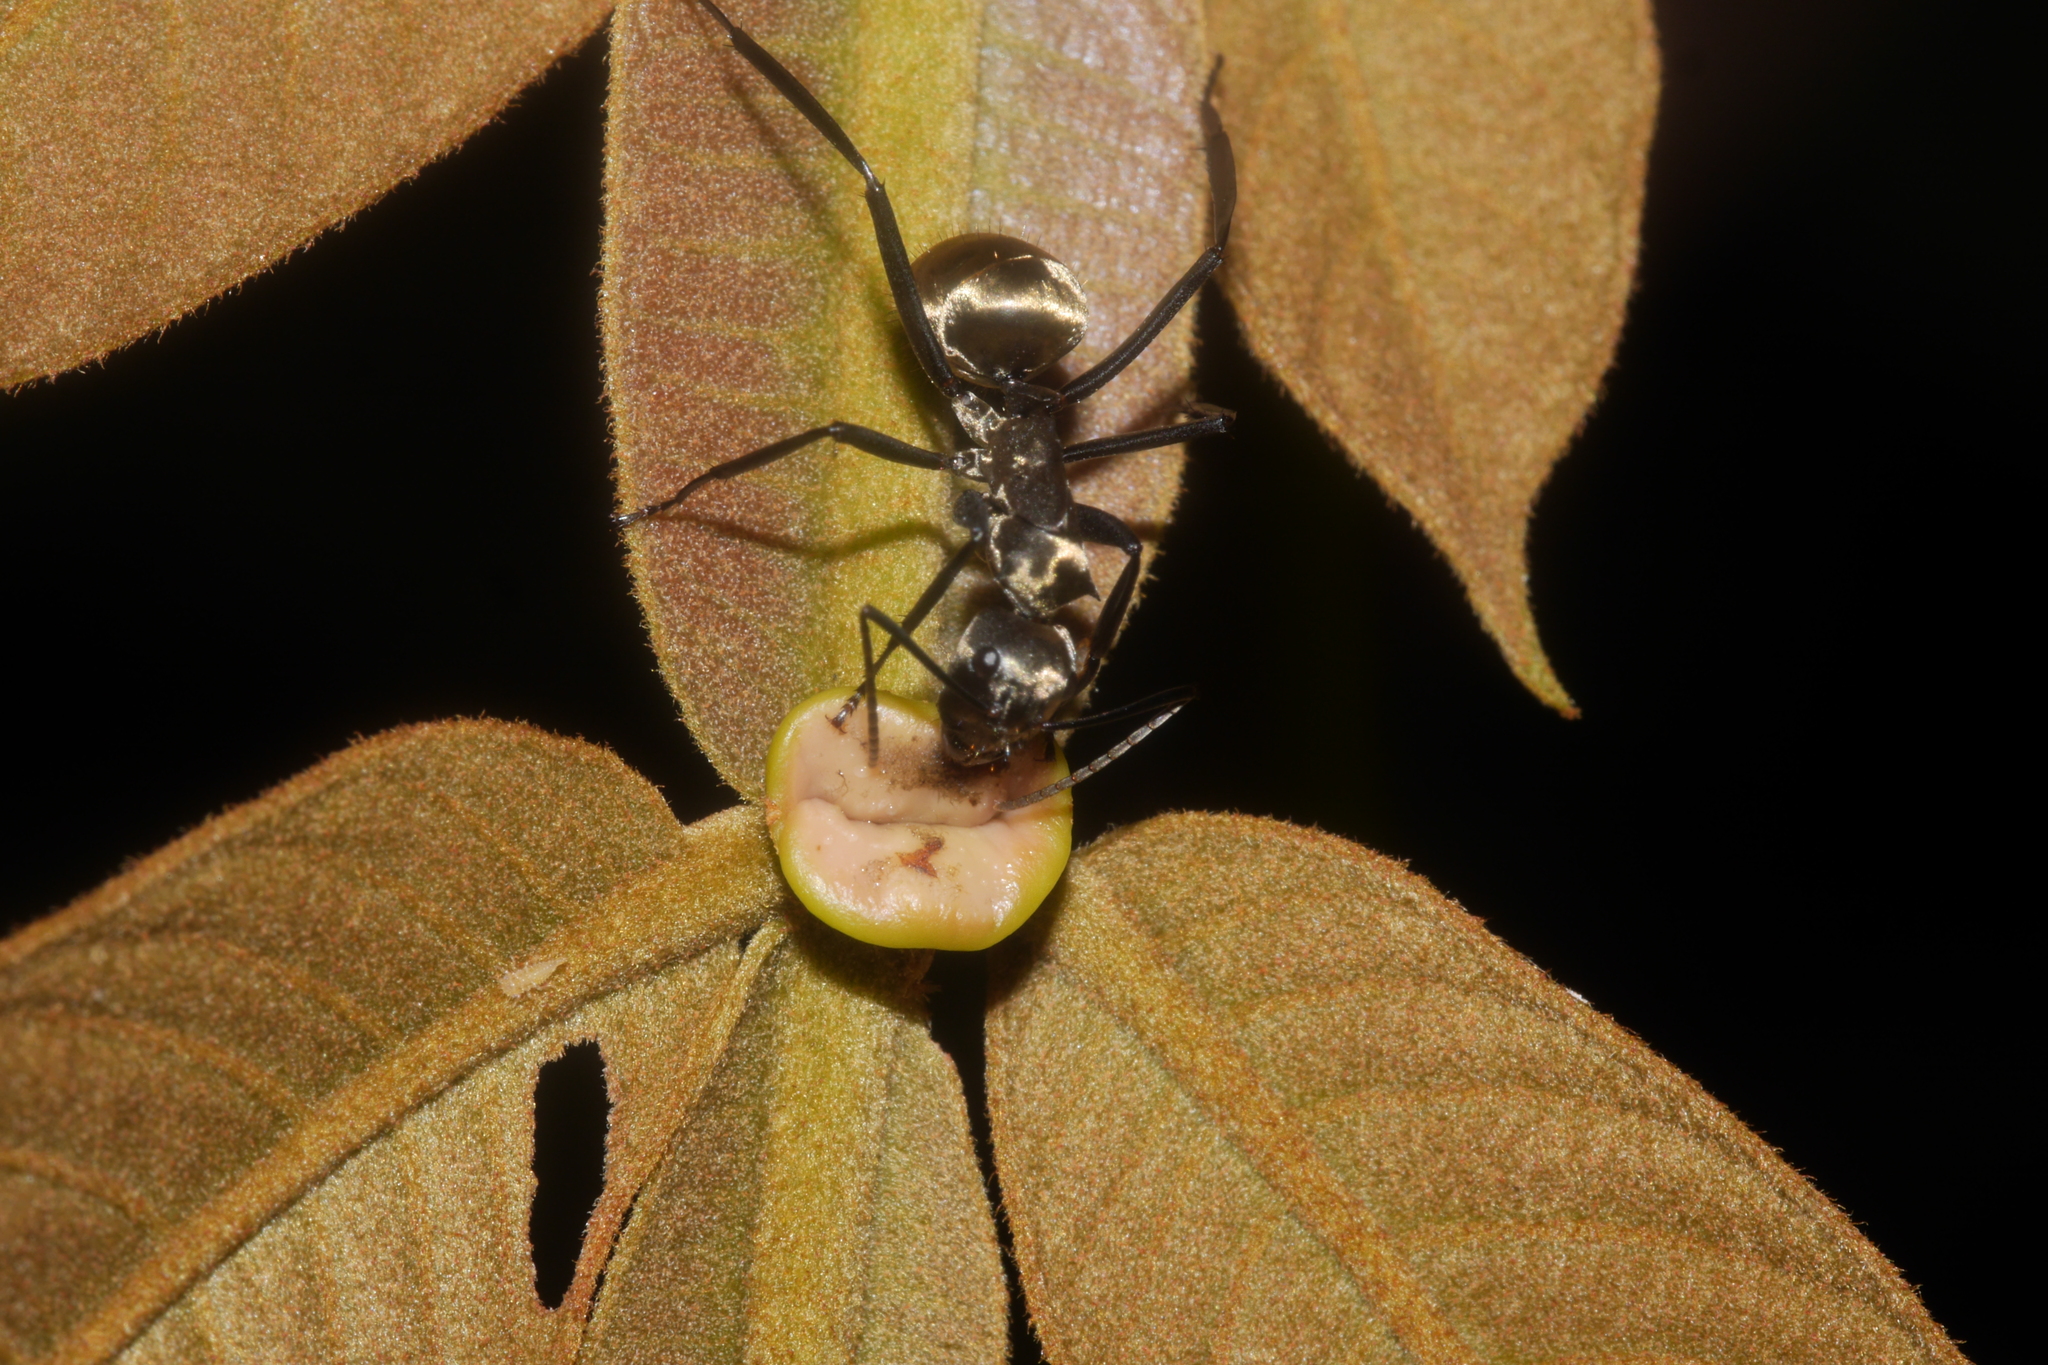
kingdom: Animalia
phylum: Arthropoda
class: Insecta
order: Hymenoptera
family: Formicidae
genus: Camponotus
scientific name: Camponotus sericeiventris
